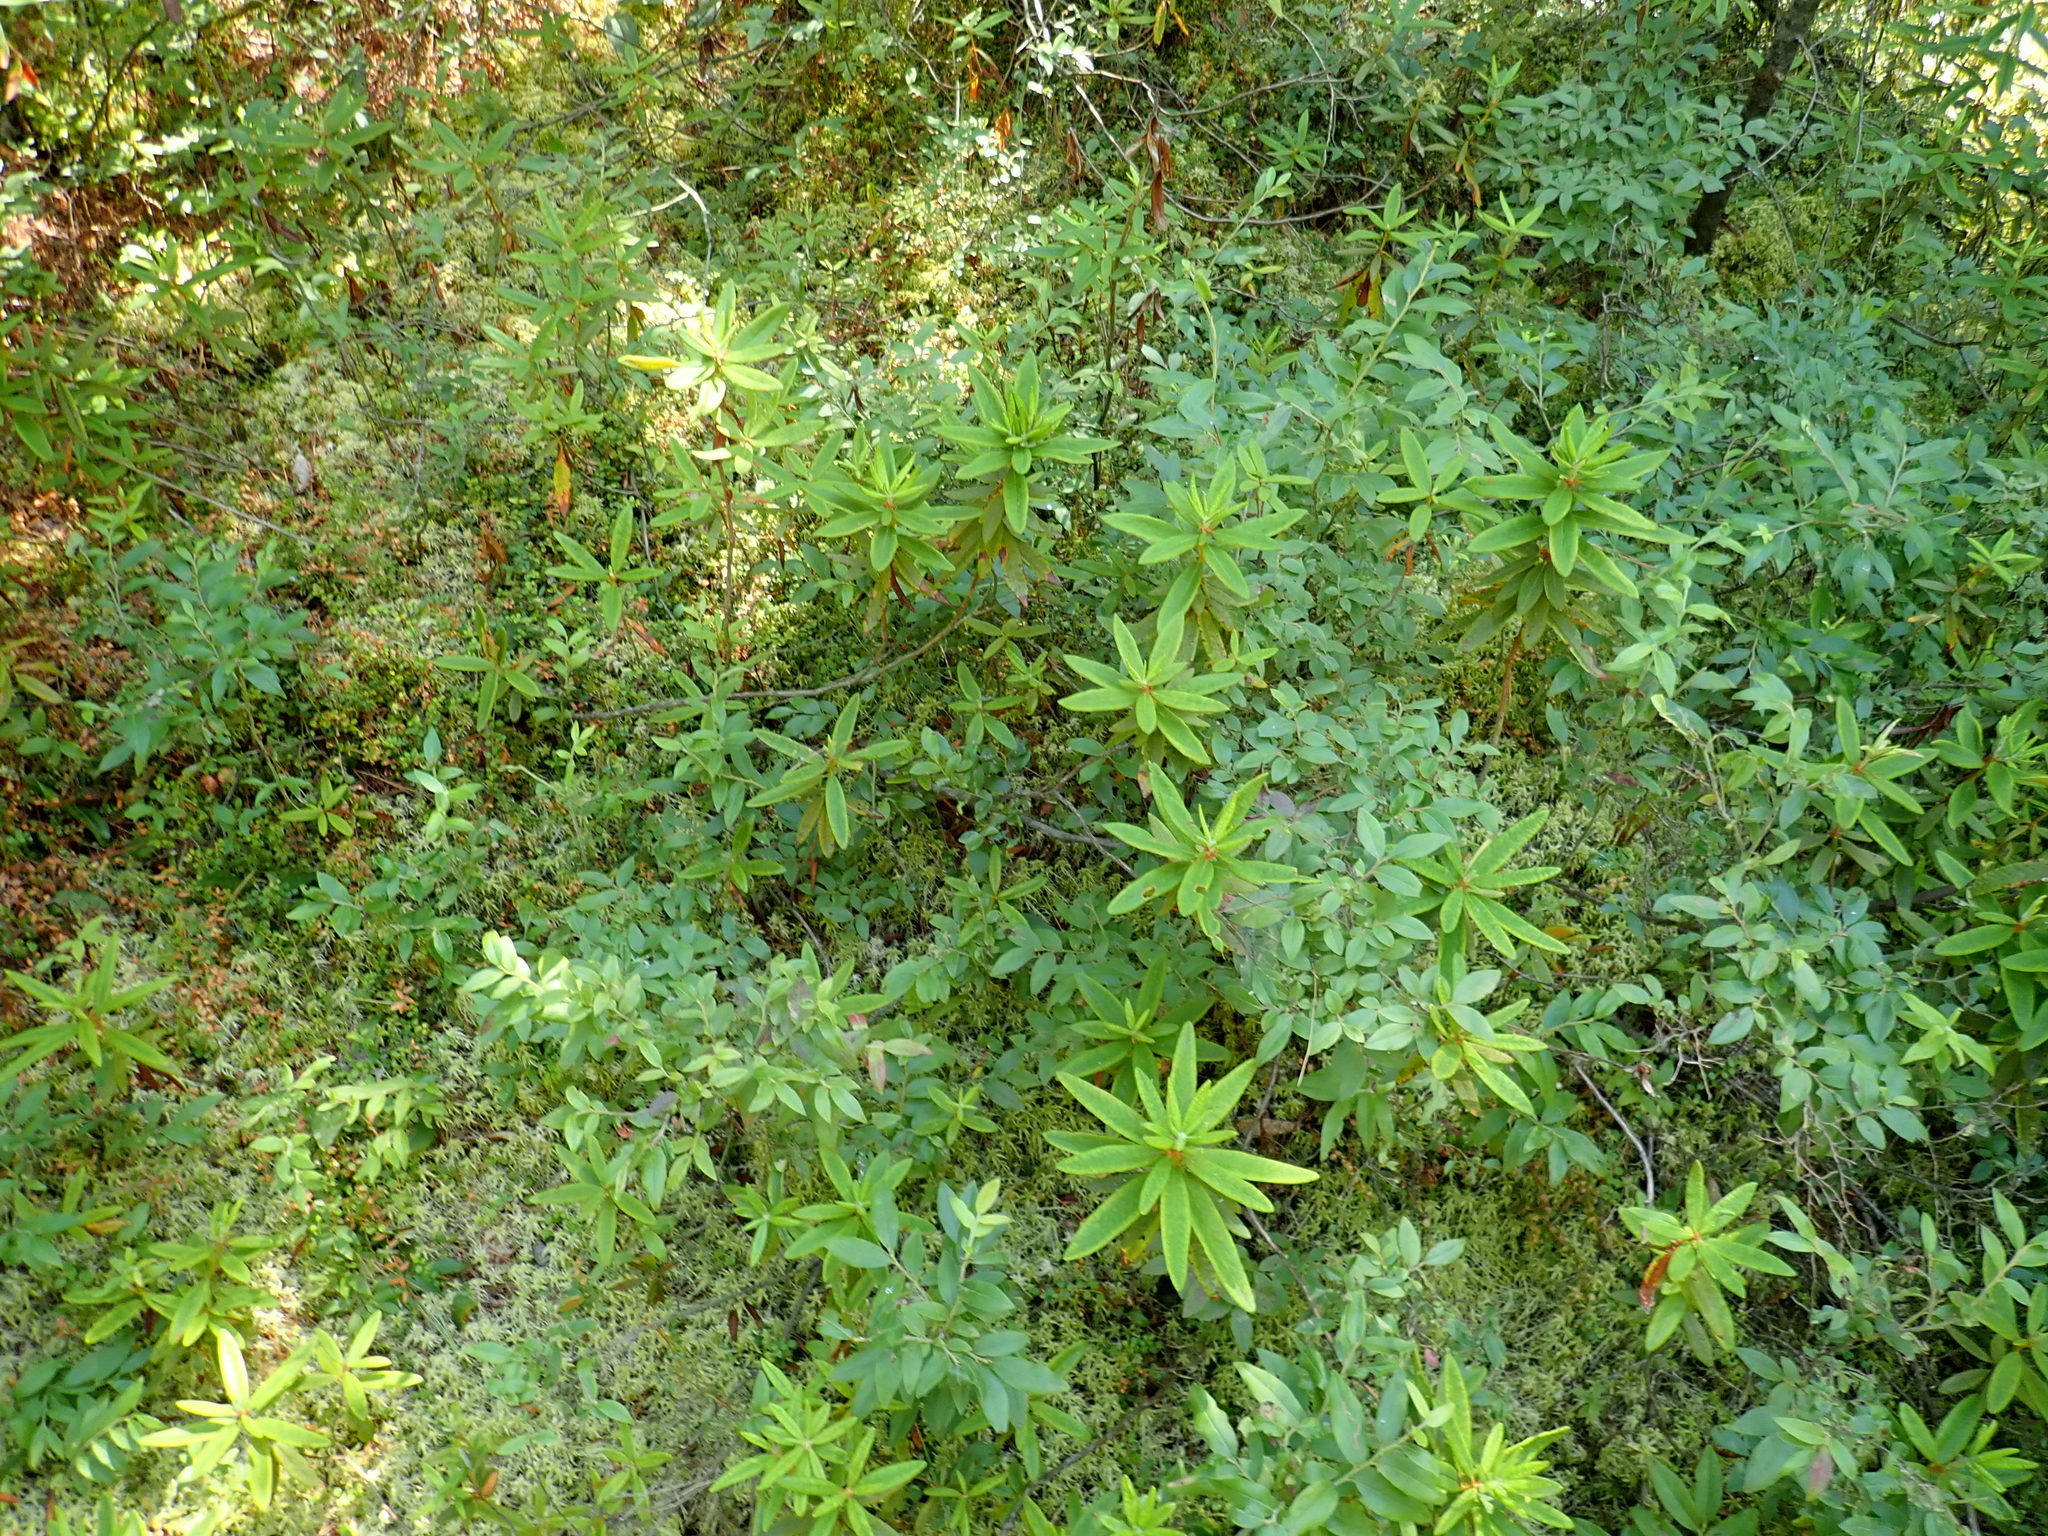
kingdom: Plantae
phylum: Tracheophyta
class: Magnoliopsida
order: Ericales
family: Ericaceae
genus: Rhododendron
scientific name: Rhododendron groenlandicum
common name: Bog labrador tea
